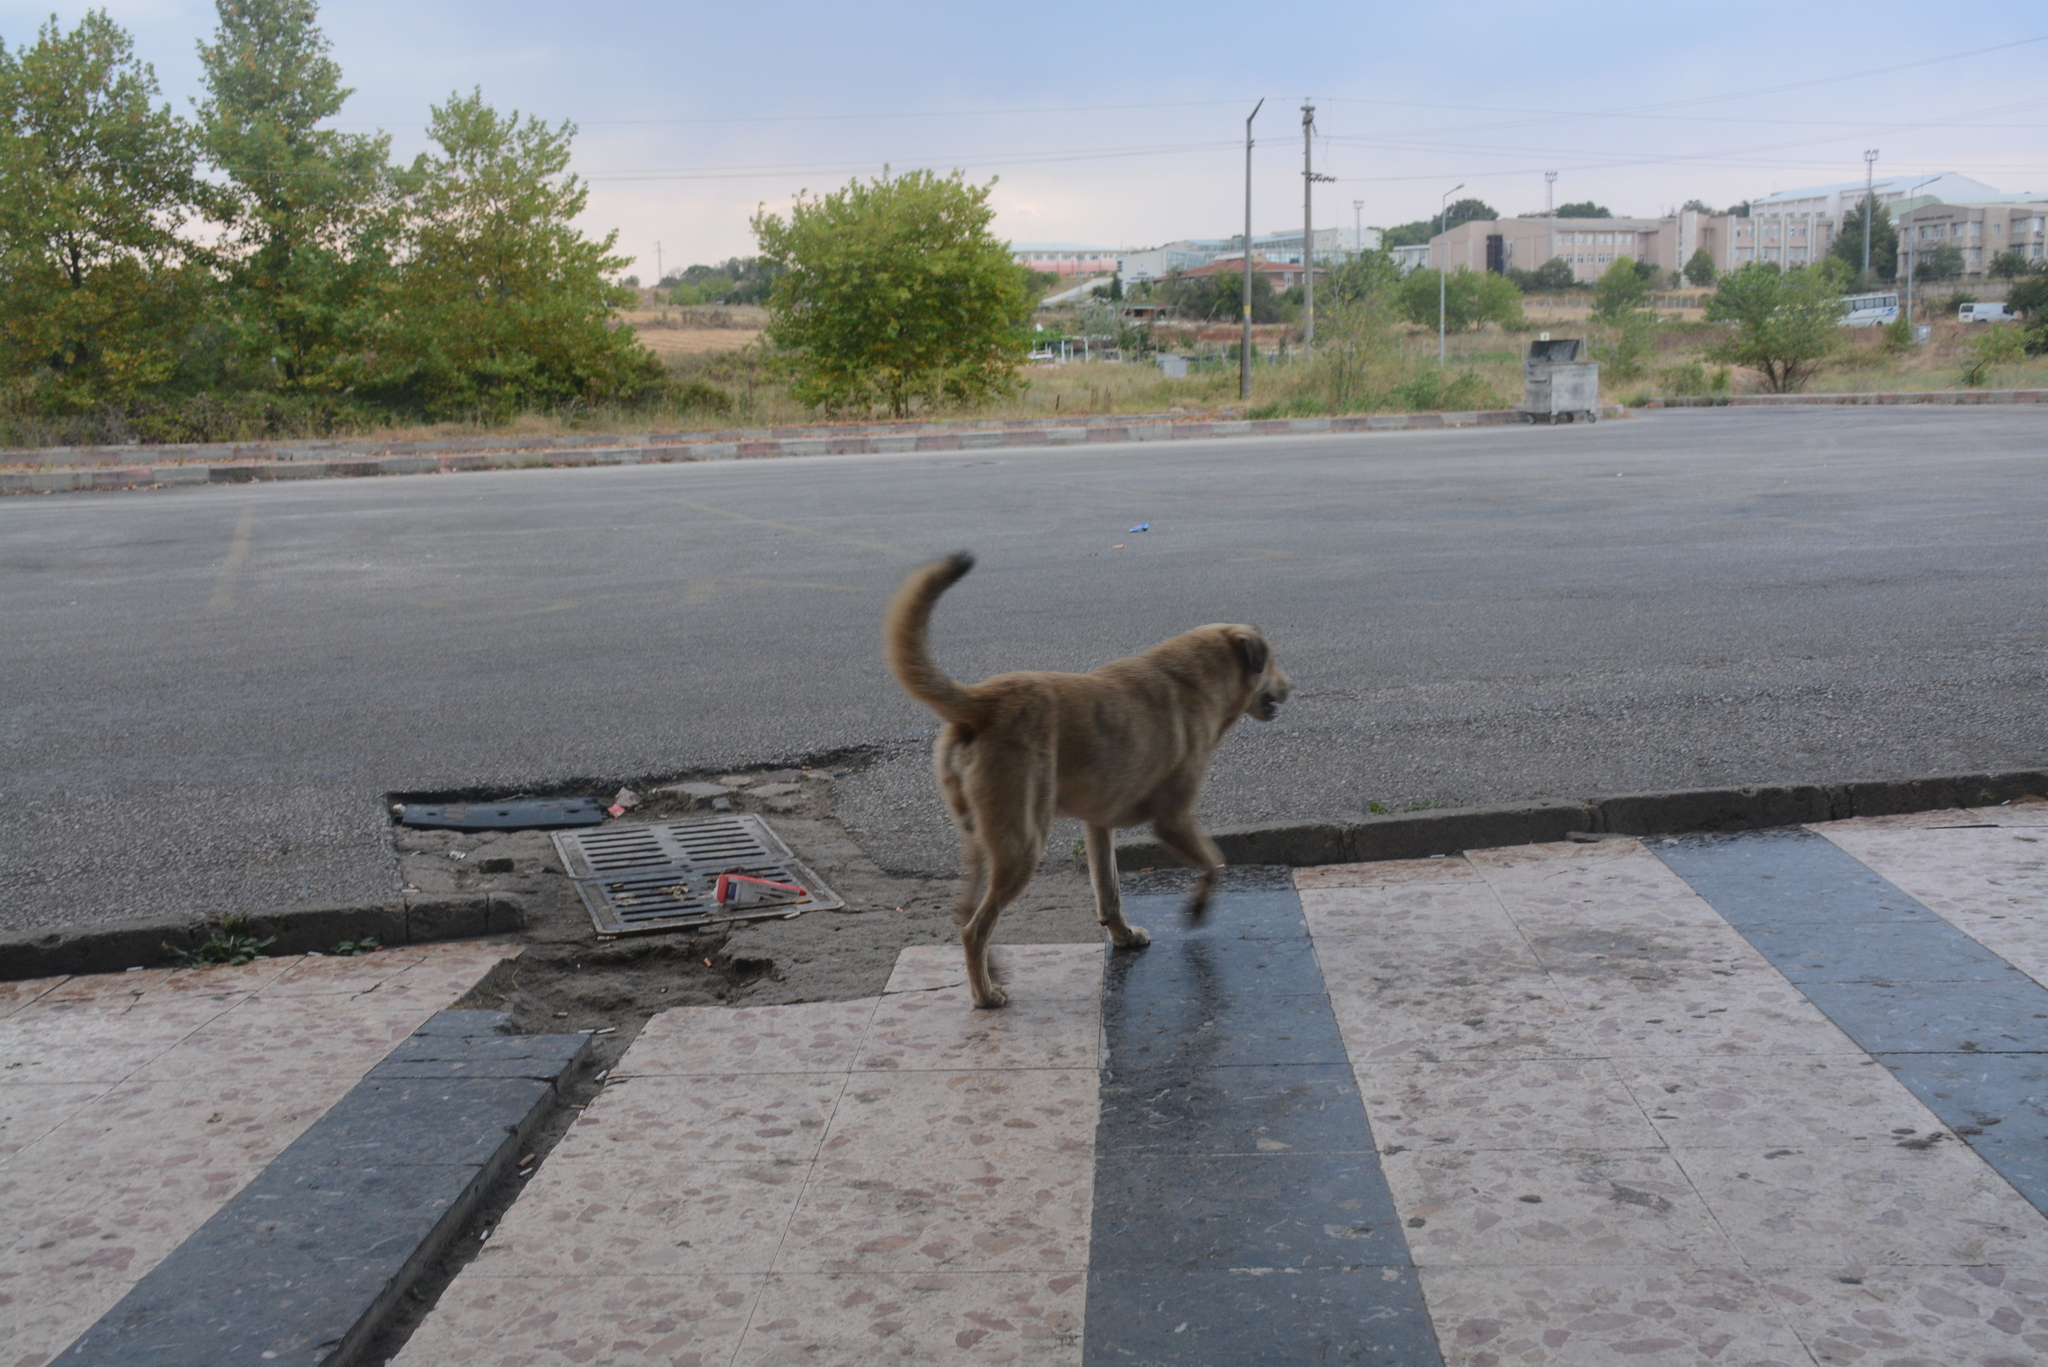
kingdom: Animalia
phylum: Chordata
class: Mammalia
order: Carnivora
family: Canidae
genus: Canis
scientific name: Canis lupus
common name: Gray wolf
